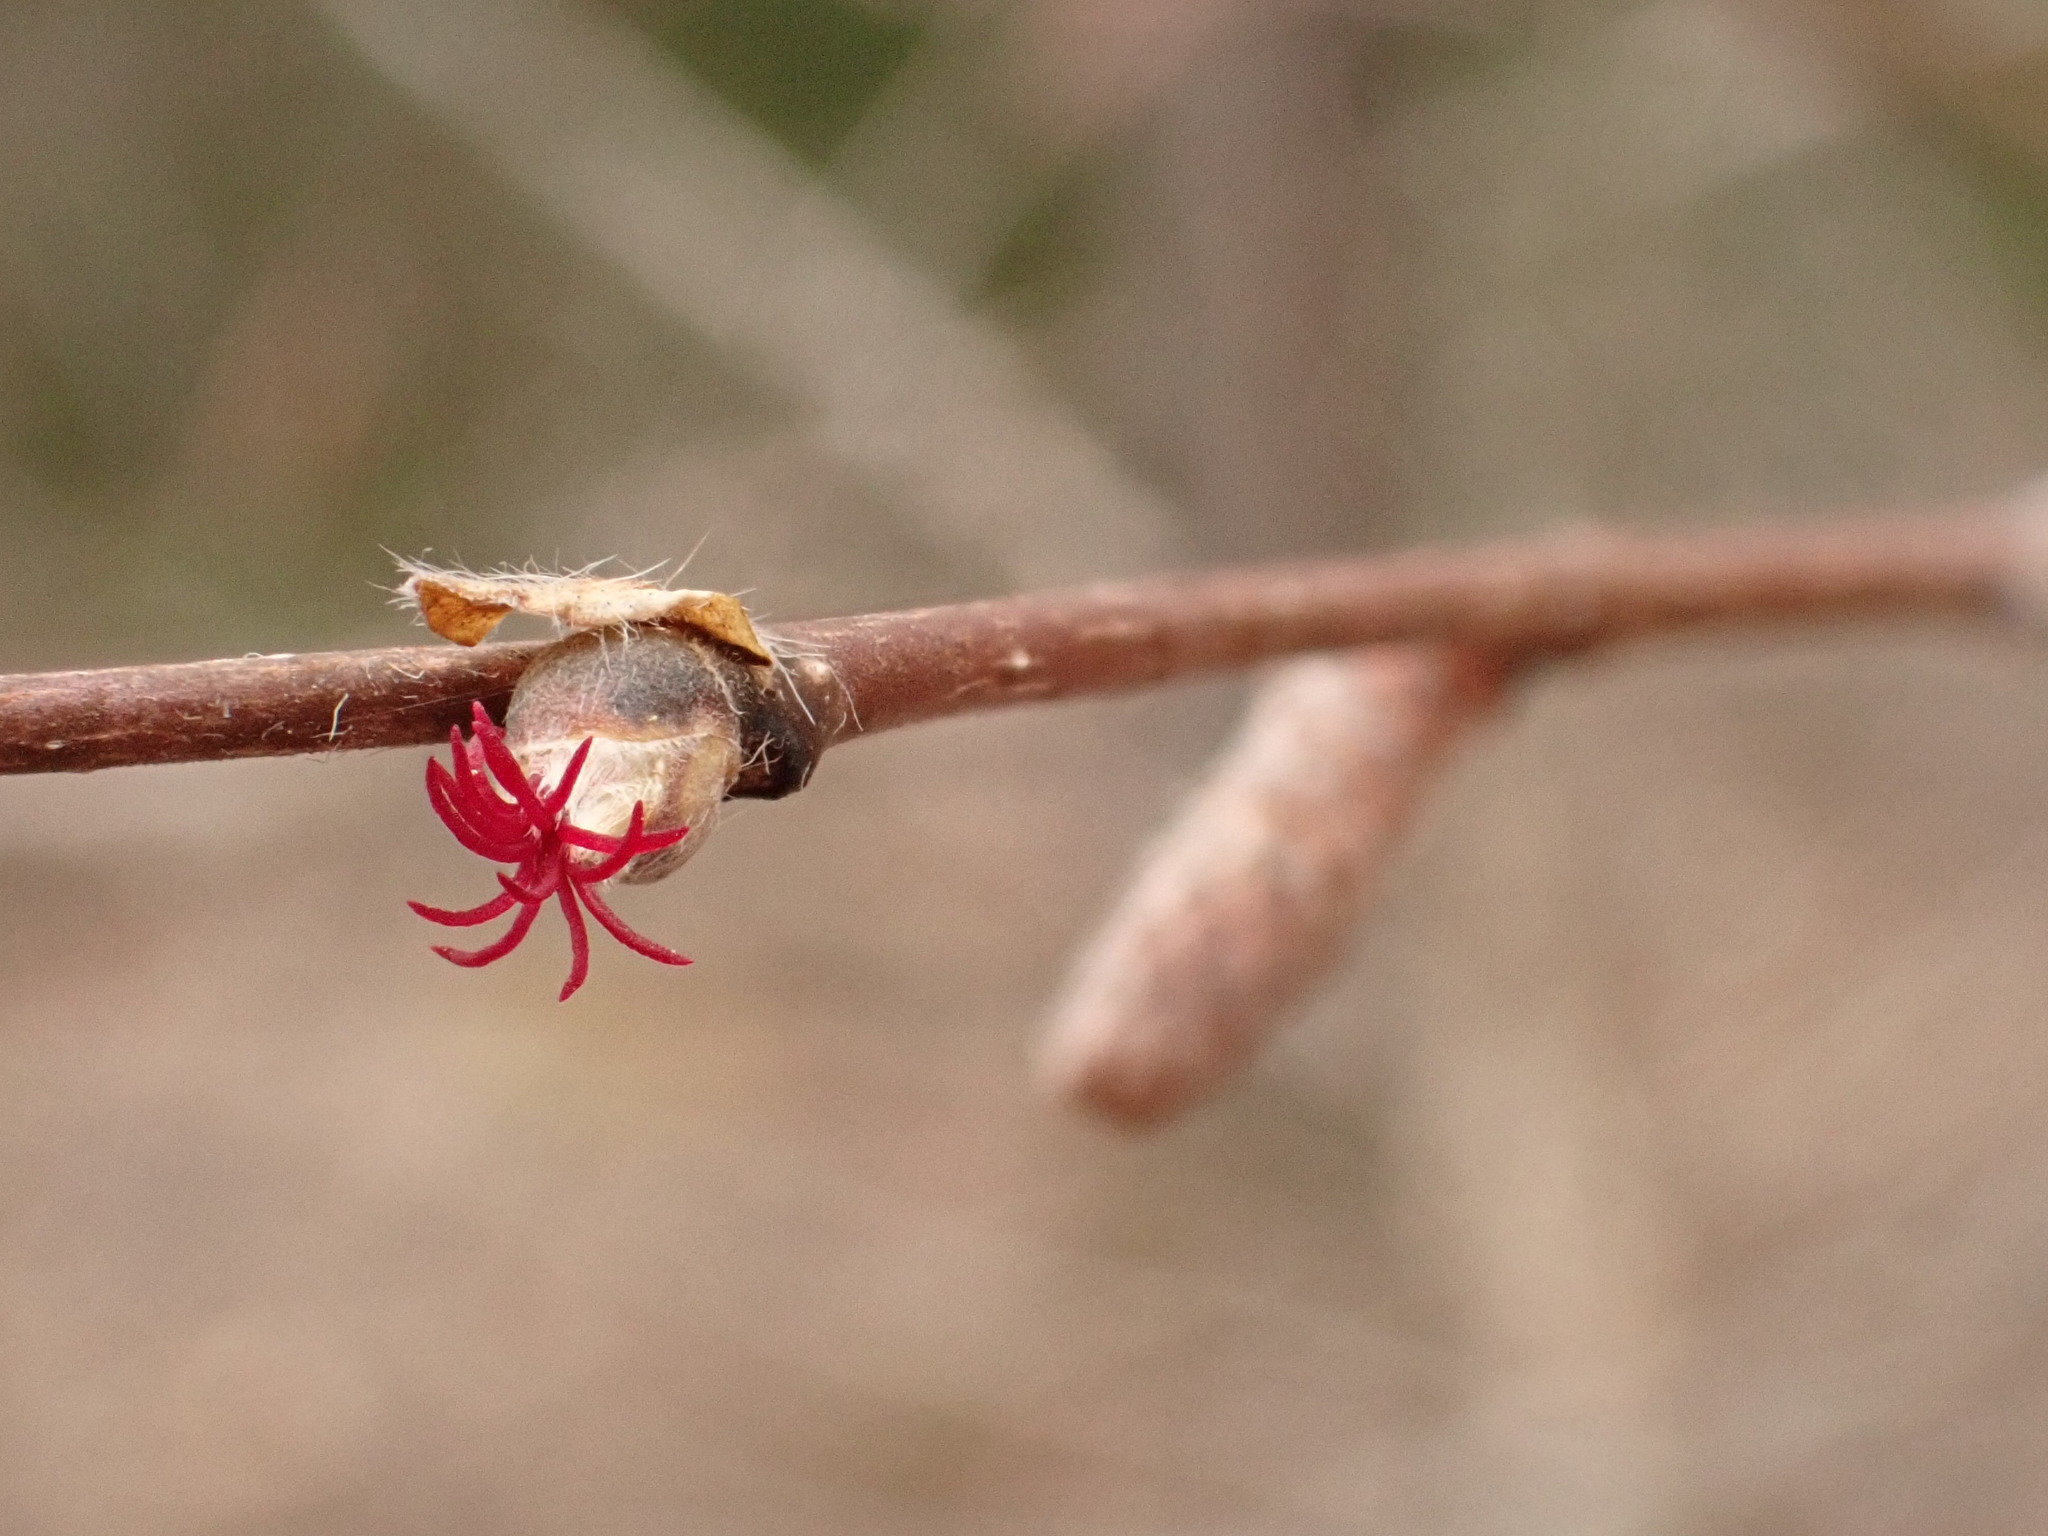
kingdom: Plantae
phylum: Tracheophyta
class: Magnoliopsida
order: Fagales
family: Betulaceae
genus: Corylus
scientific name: Corylus cornuta
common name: Beaked hazel
